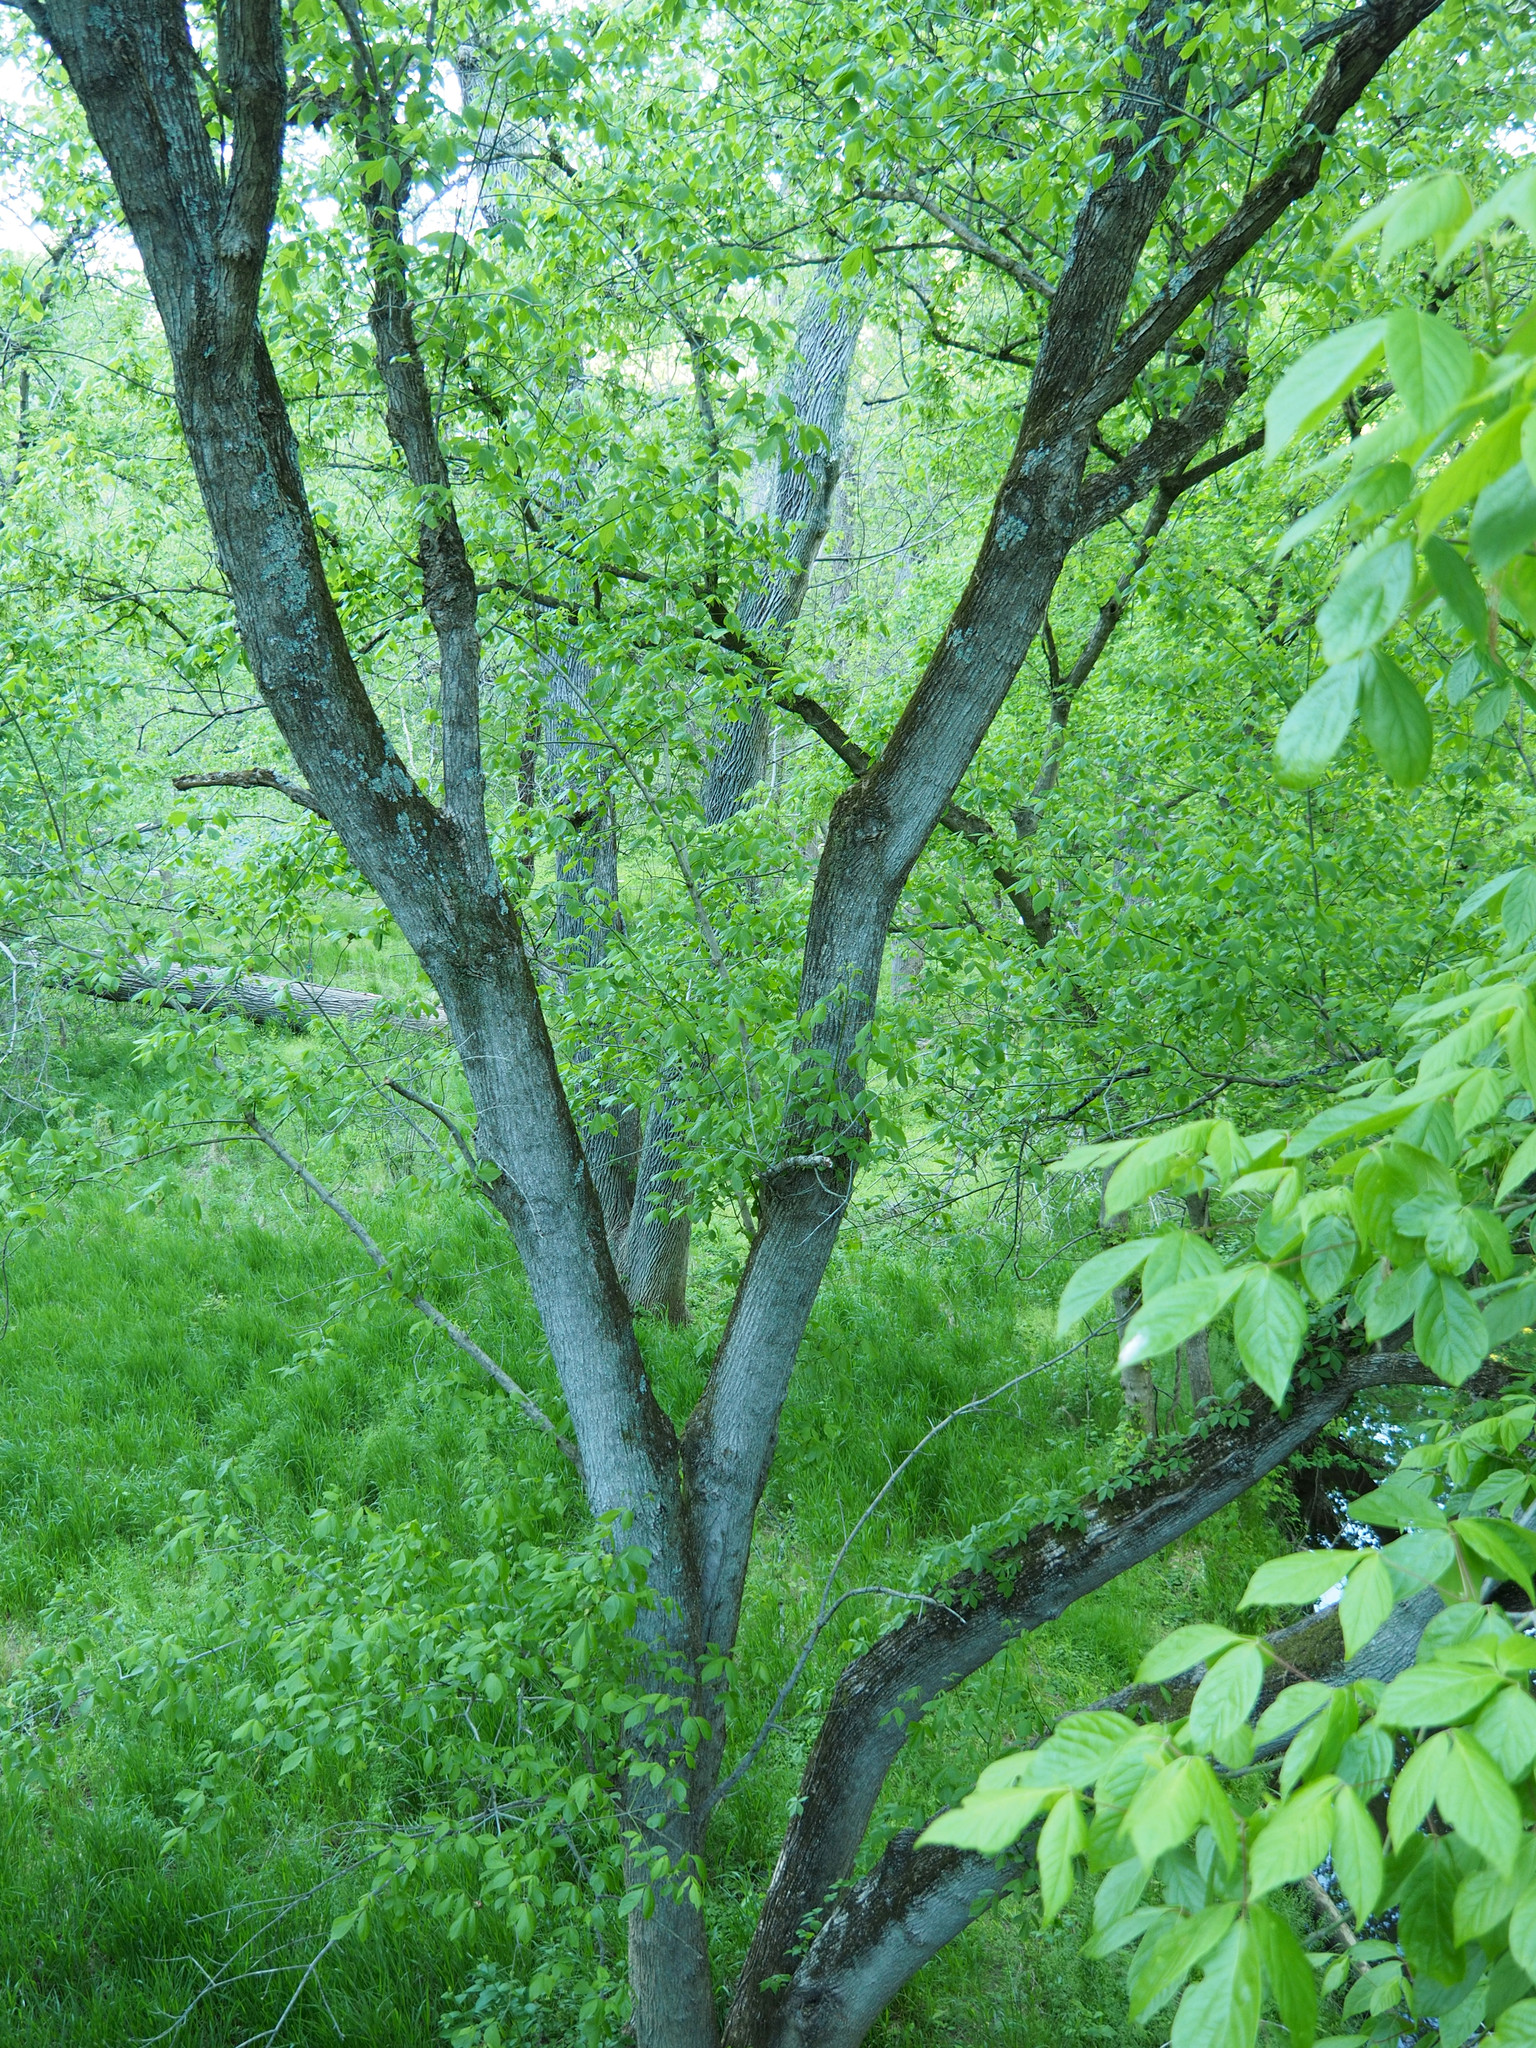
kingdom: Plantae
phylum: Tracheophyta
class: Magnoliopsida
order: Sapindales
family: Sapindaceae
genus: Acer
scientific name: Acer negundo
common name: Ashleaf maple
